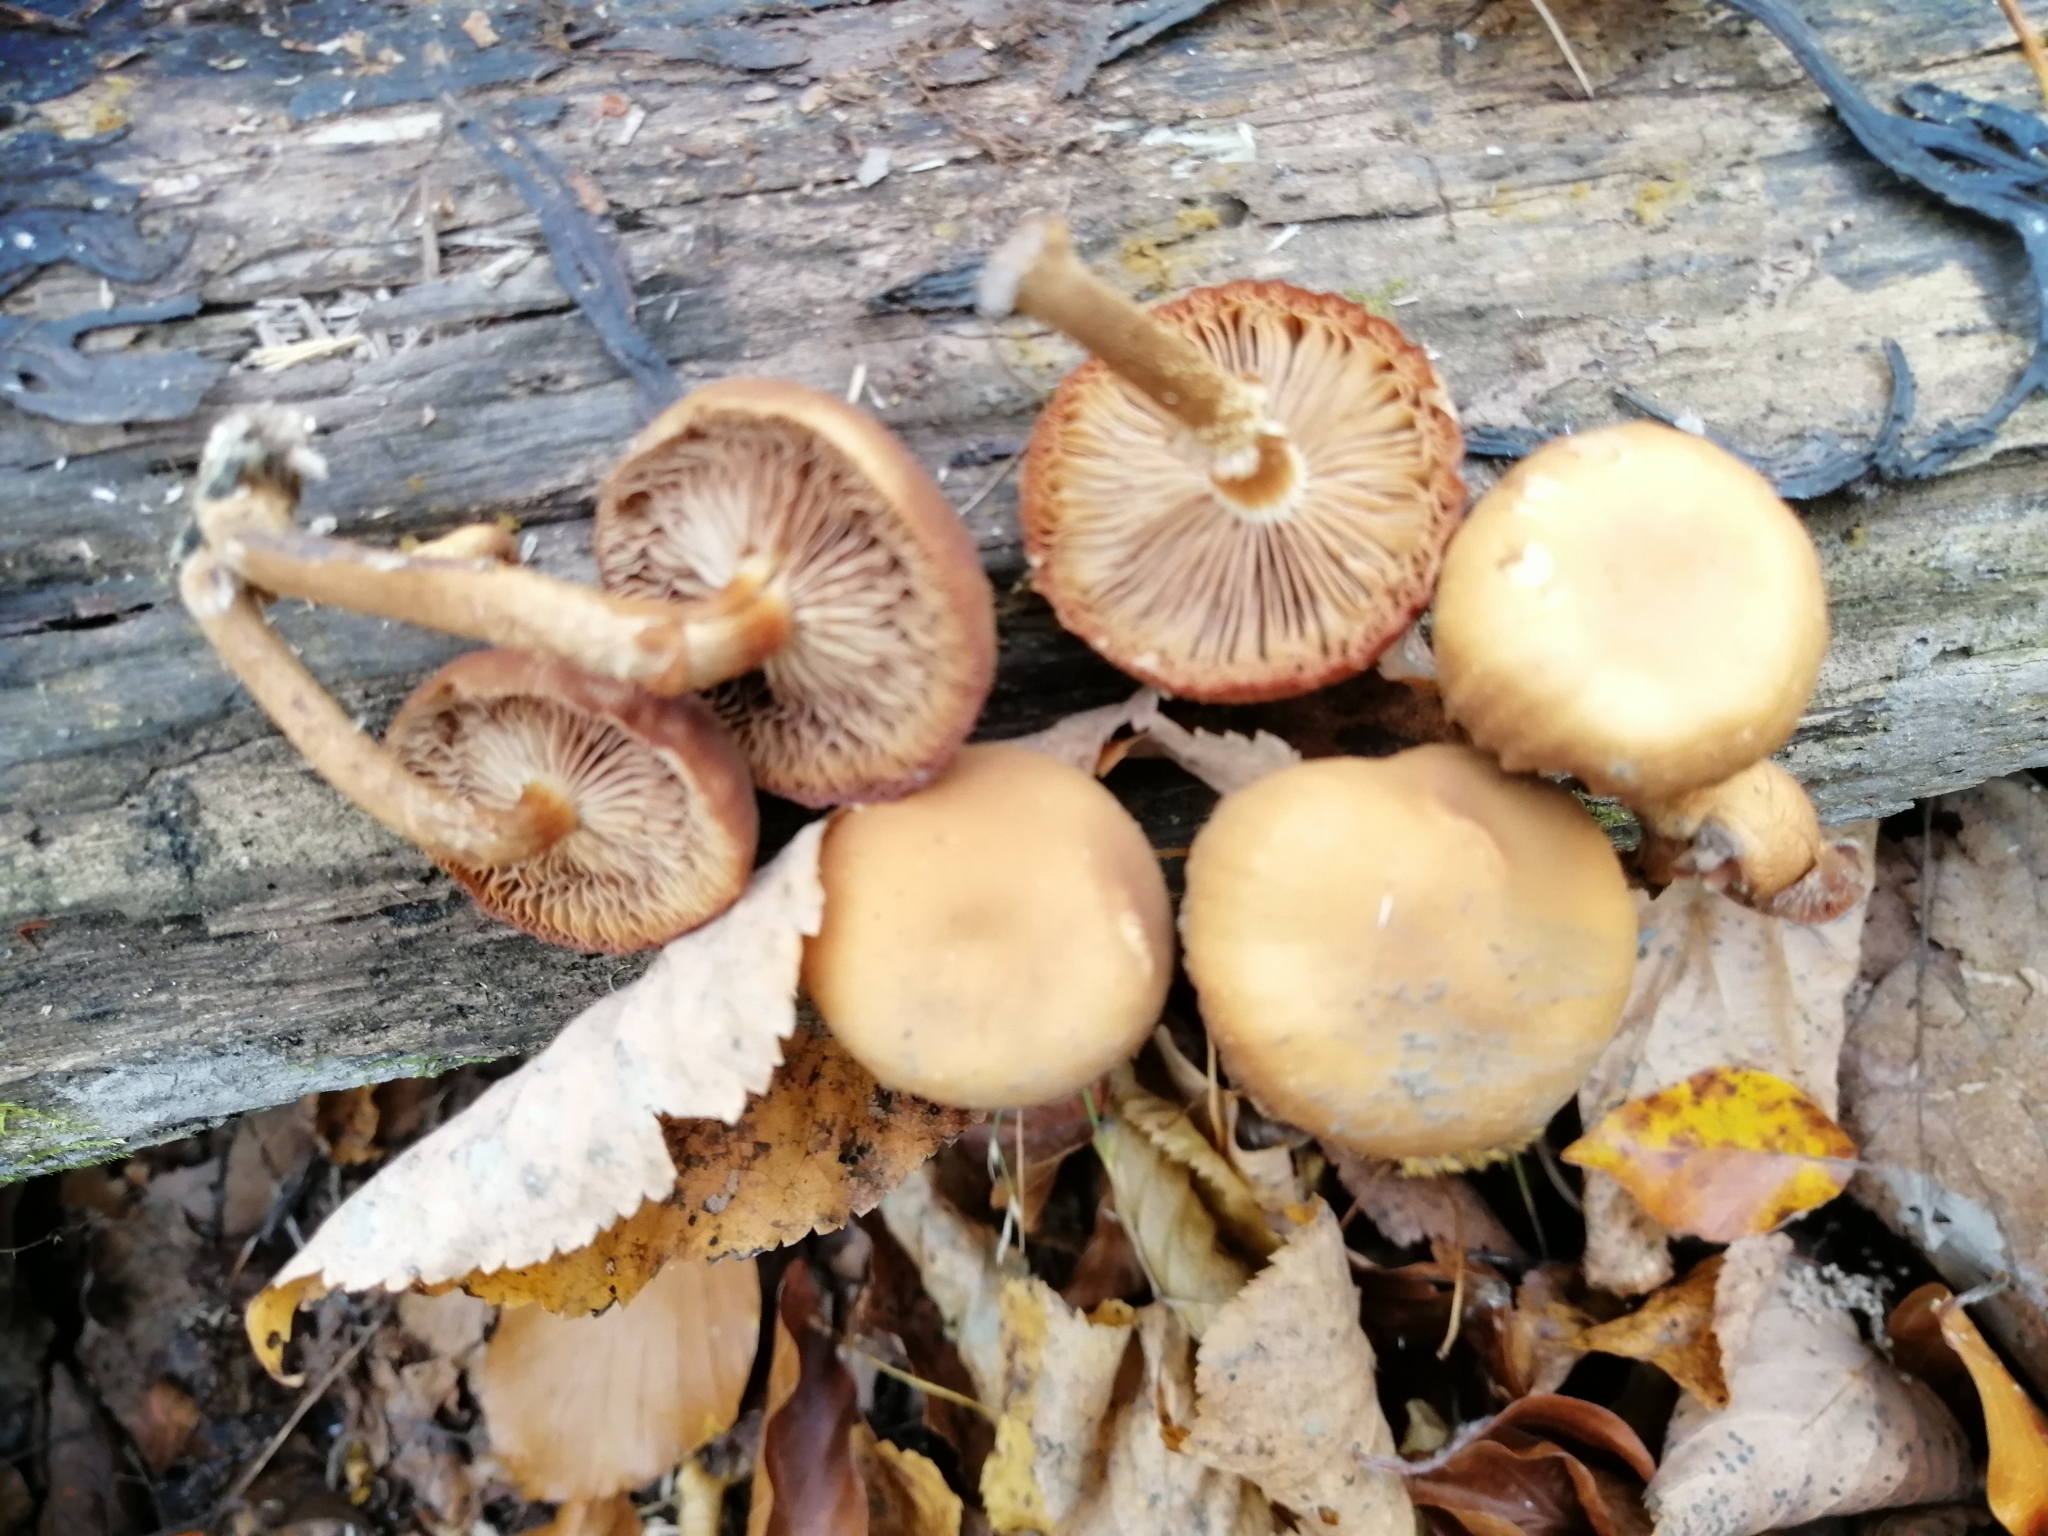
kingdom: Fungi
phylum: Basidiomycota
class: Agaricomycetes
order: Agaricales
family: Strophariaceae
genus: Kuehneromyces
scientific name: Kuehneromyces mutabilis
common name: Sheathed woodtuft
